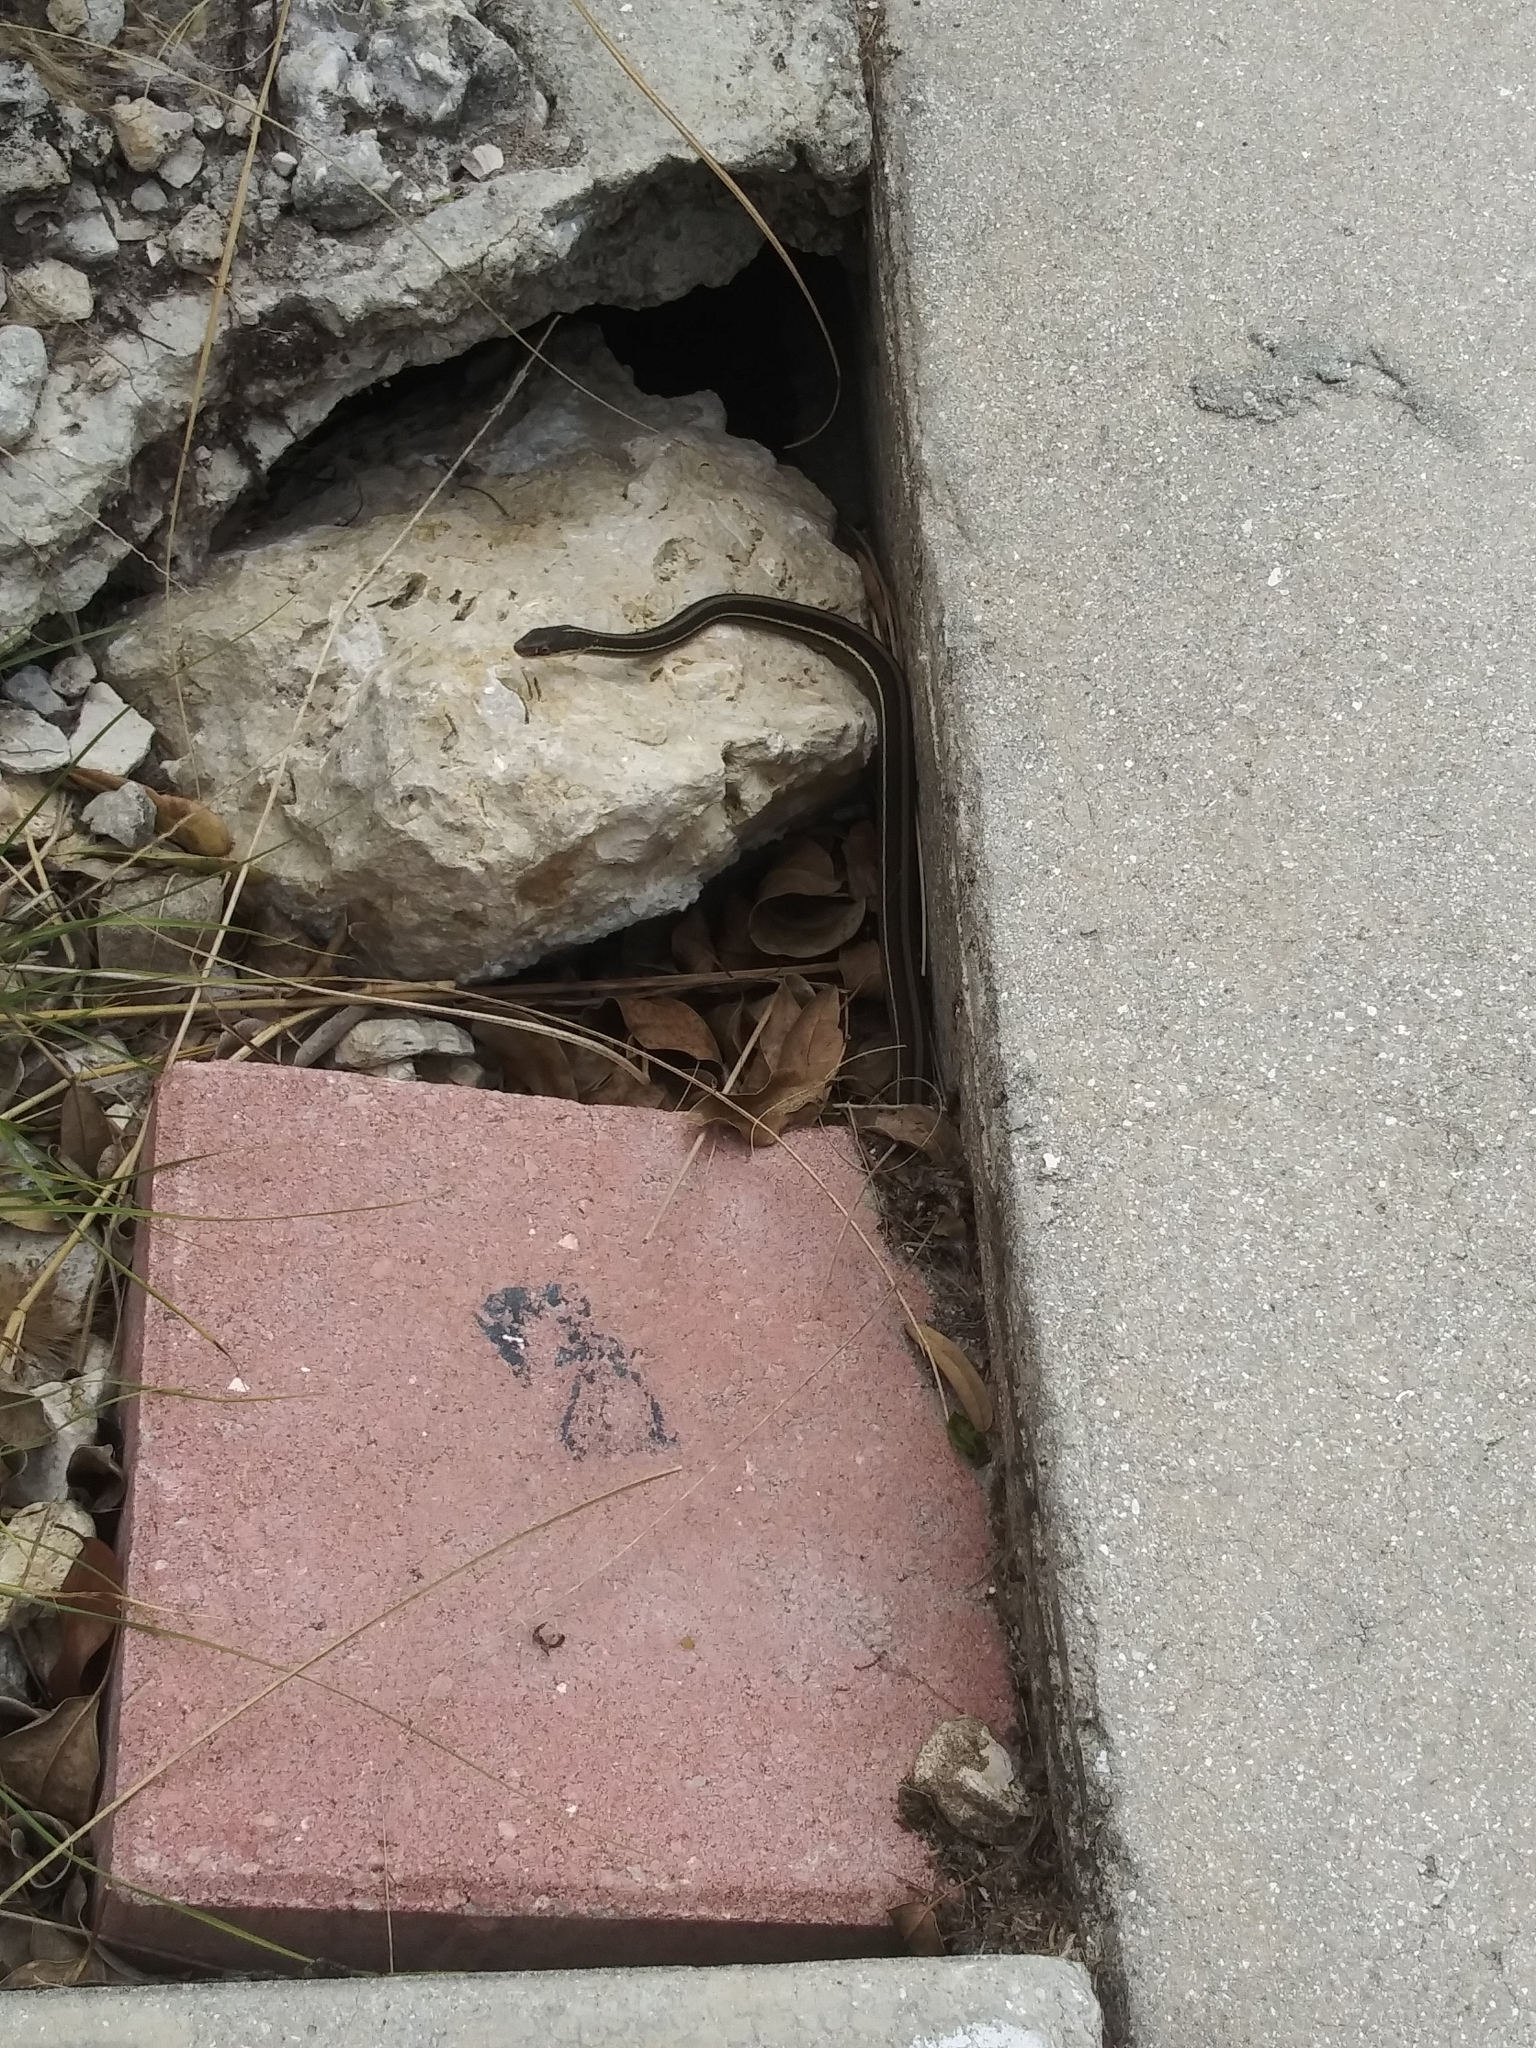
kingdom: Animalia
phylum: Chordata
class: Squamata
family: Colubridae
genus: Thamnophis
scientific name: Thamnophis saurita
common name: Eastern ribbonsnake
